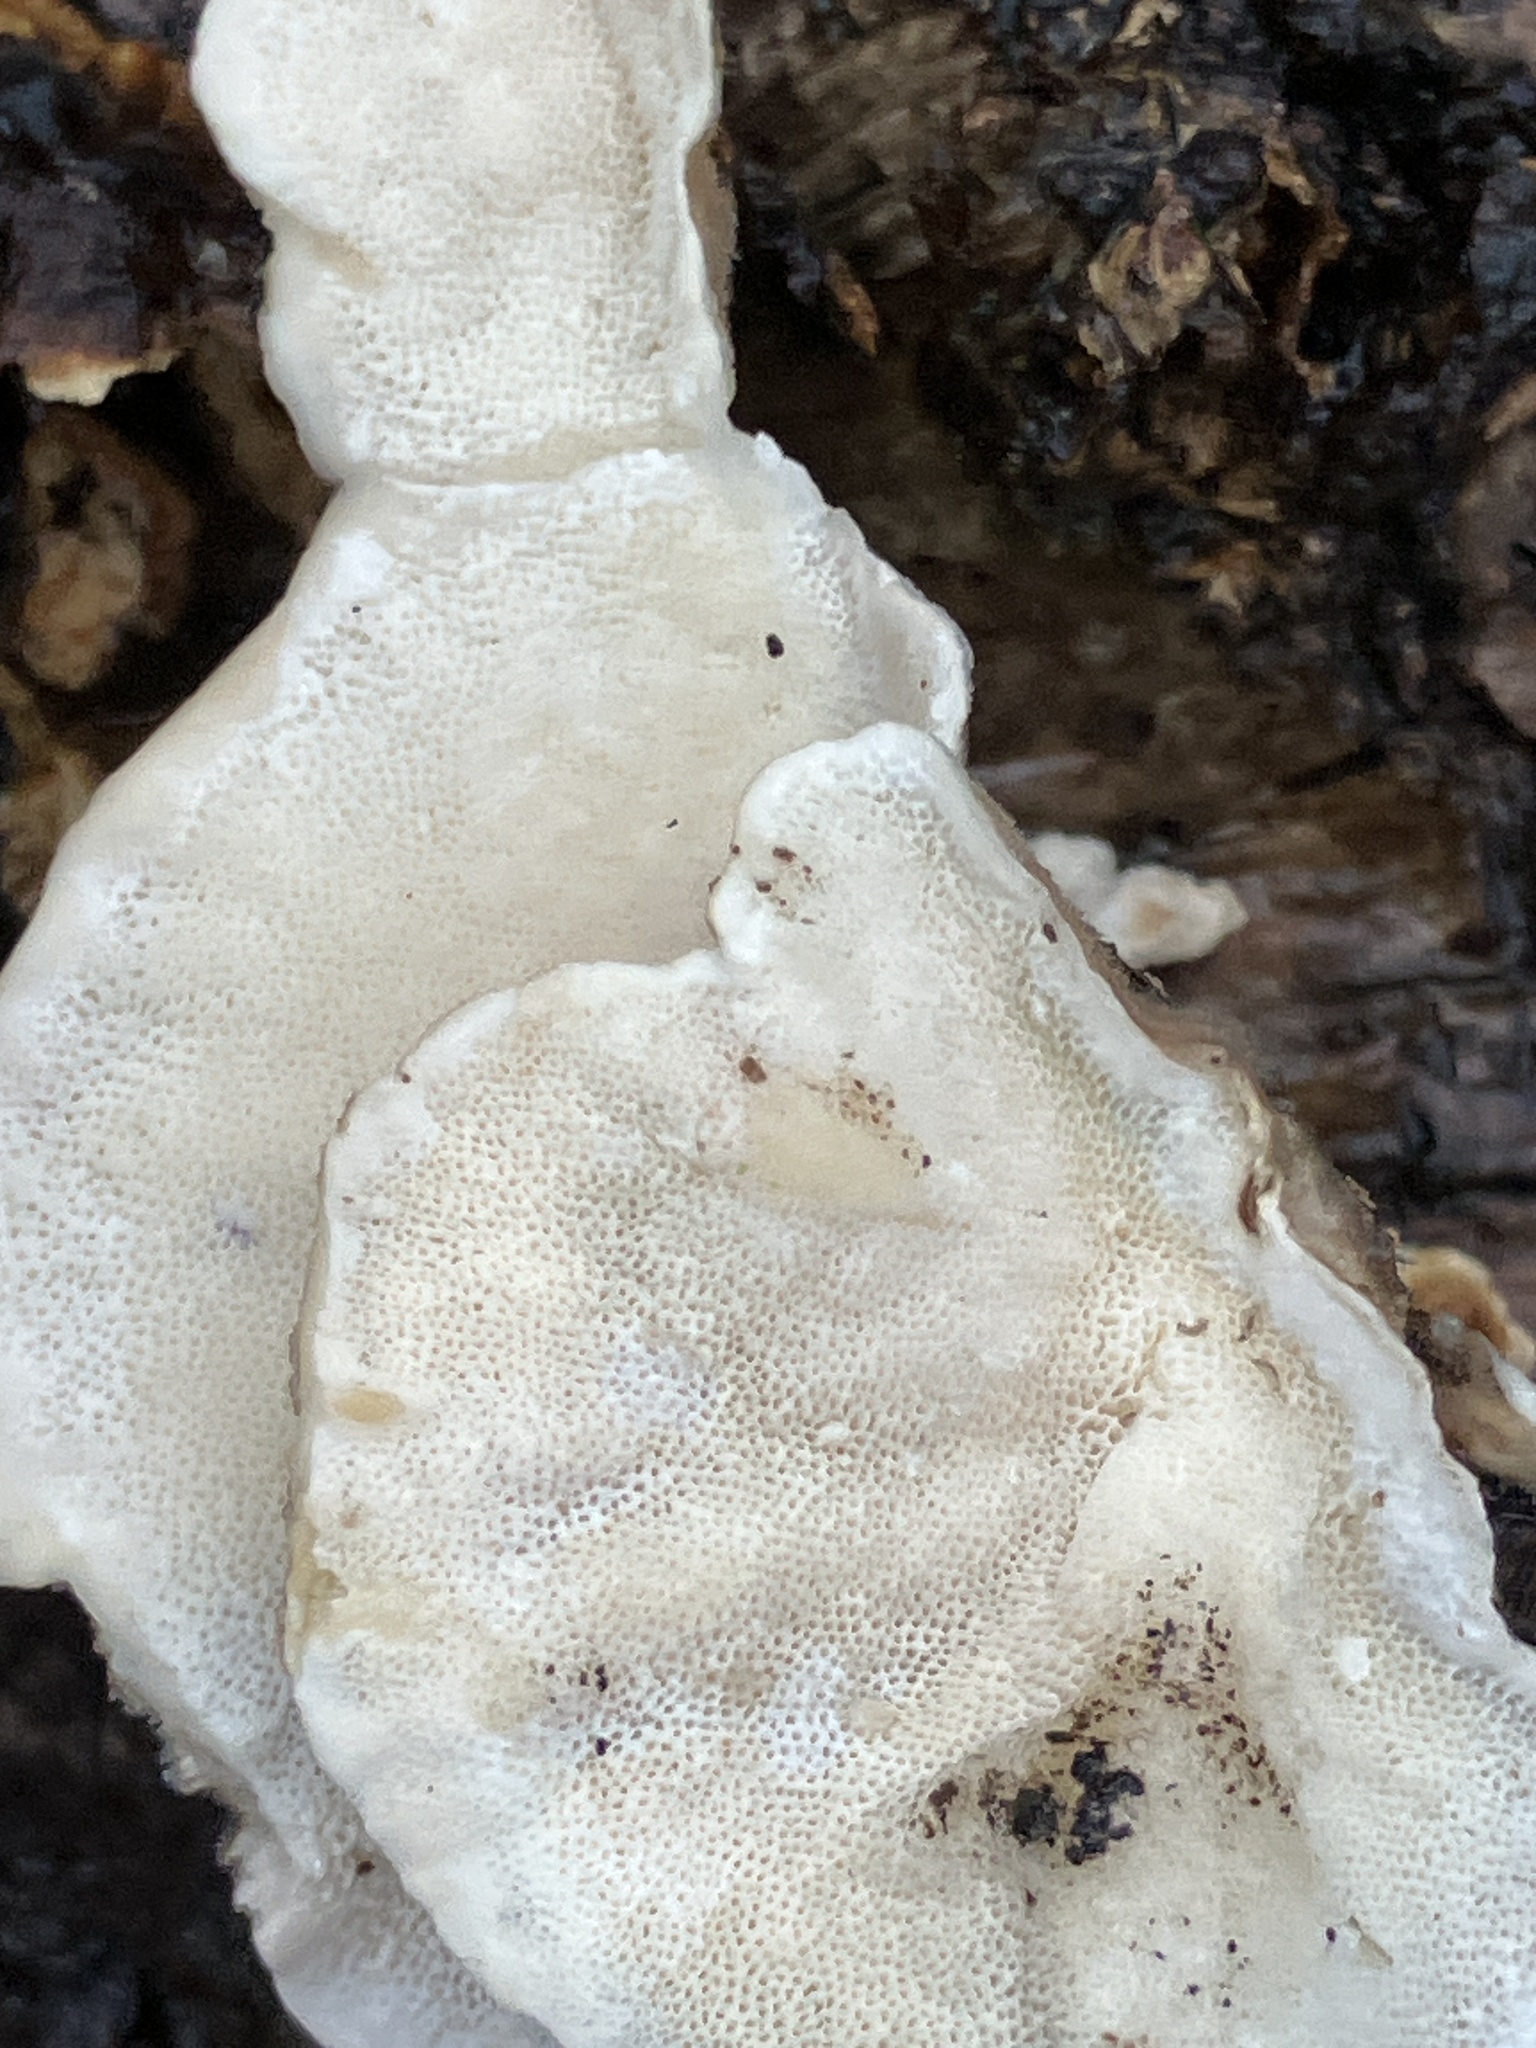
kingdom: Fungi
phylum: Basidiomycota
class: Agaricomycetes
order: Polyporales
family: Polyporaceae
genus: Trametes
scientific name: Trametes versicolor
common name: Turkeytail
